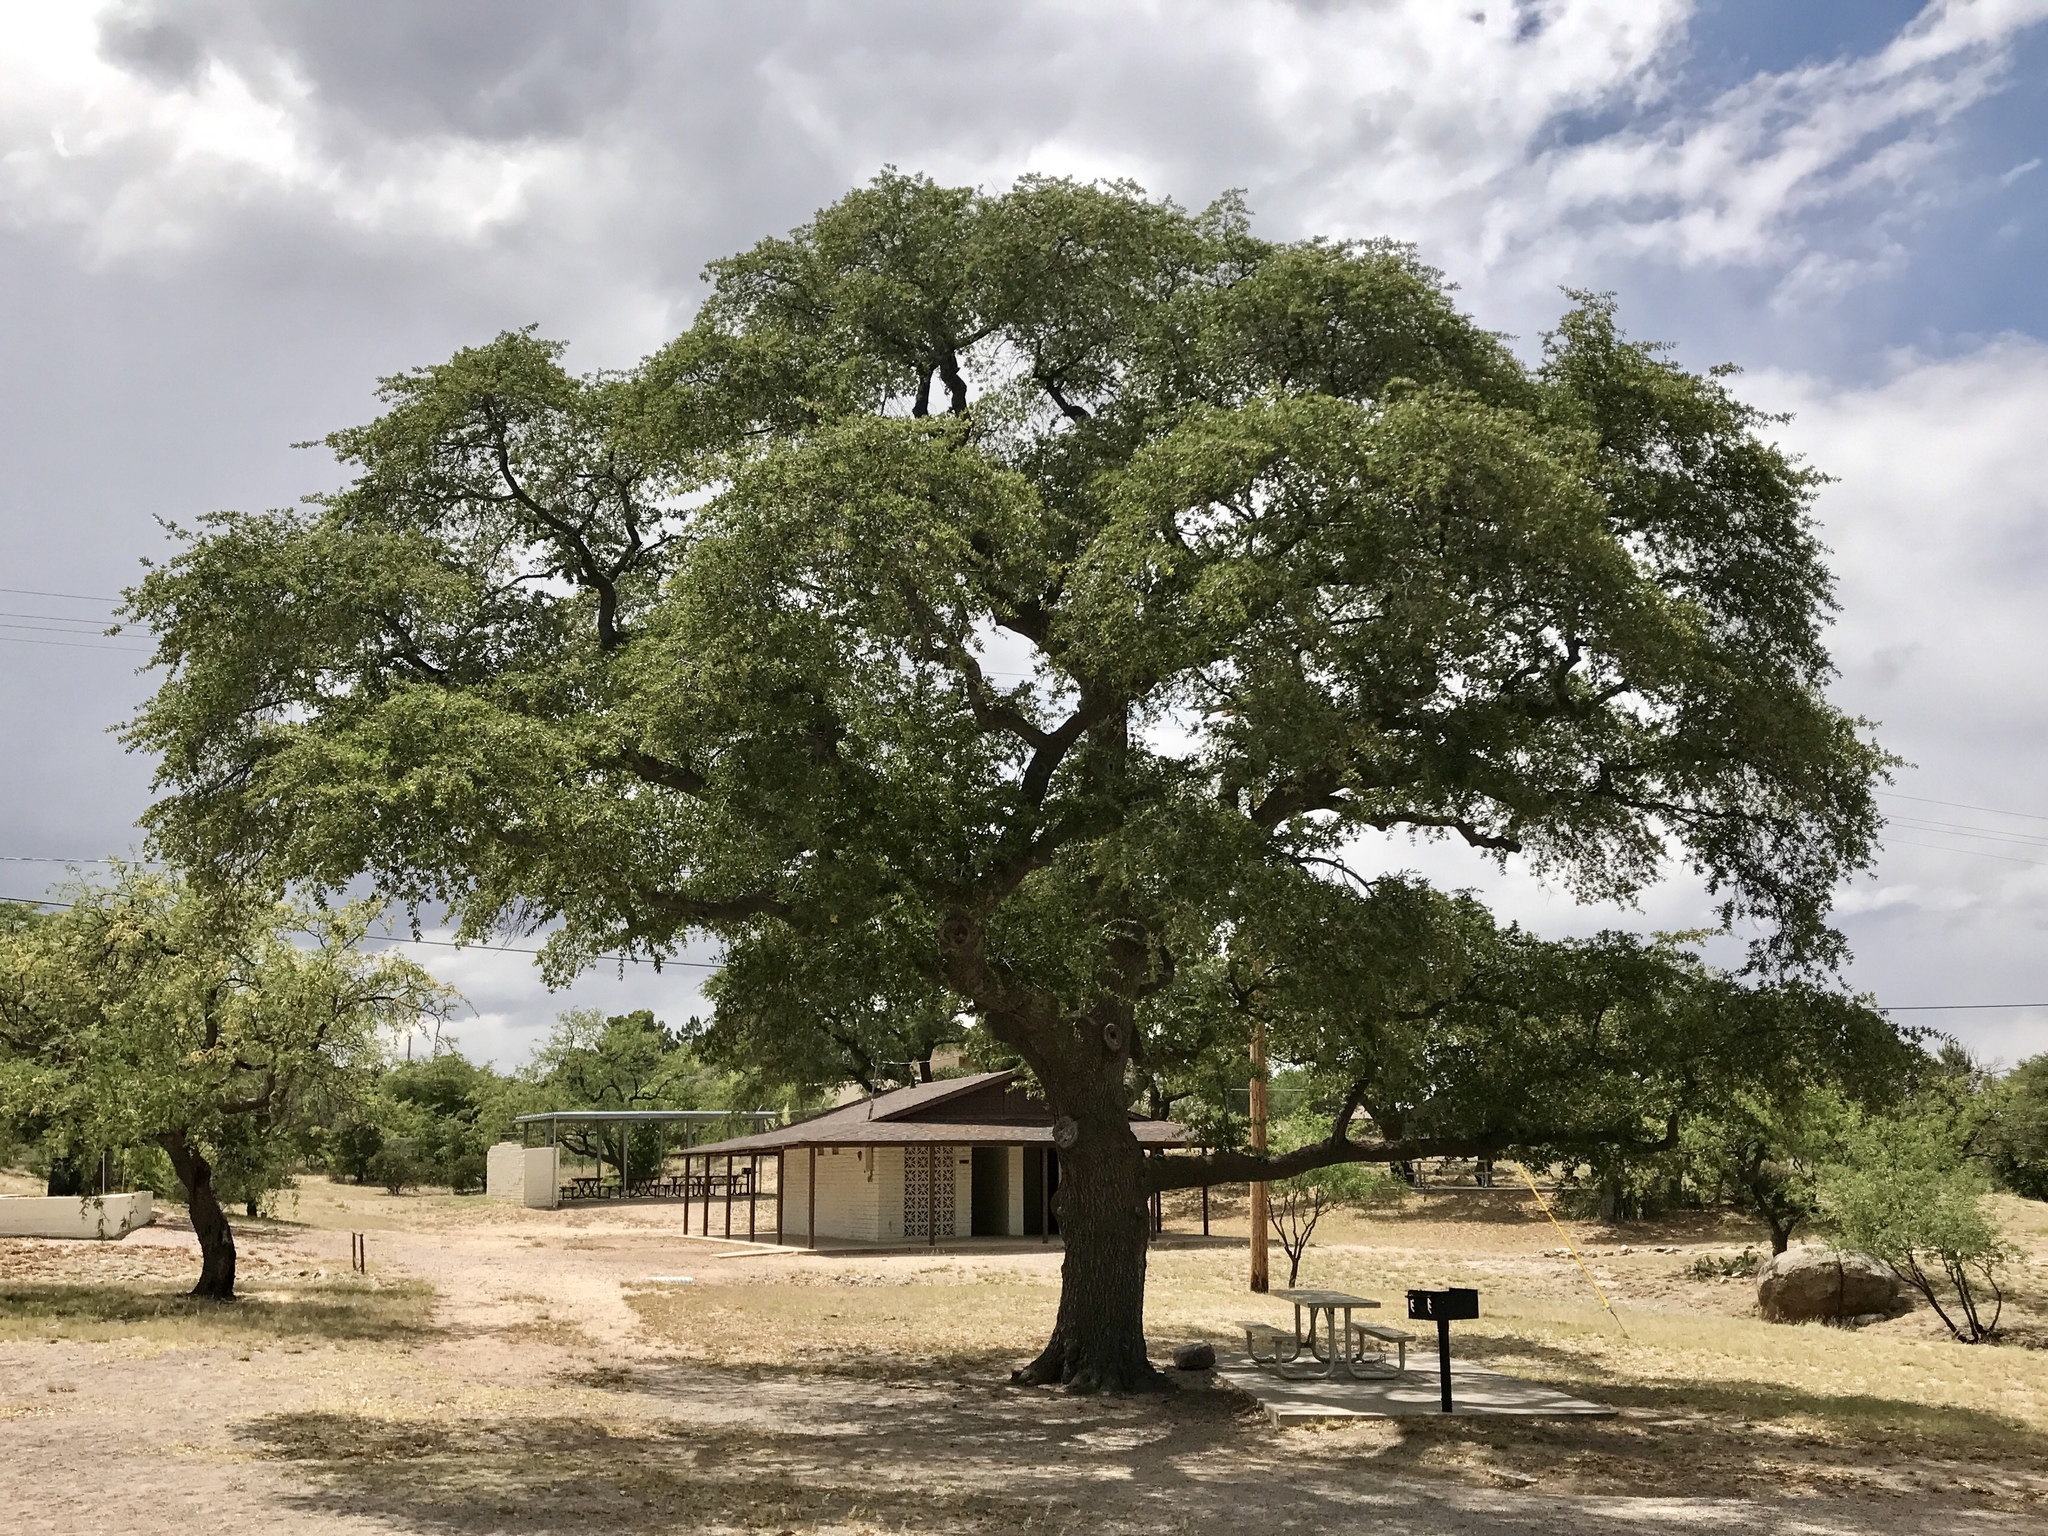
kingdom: Plantae
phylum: Tracheophyta
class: Magnoliopsida
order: Fagales
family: Fagaceae
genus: Quercus
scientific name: Quercus emoryi
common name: Emory oak
